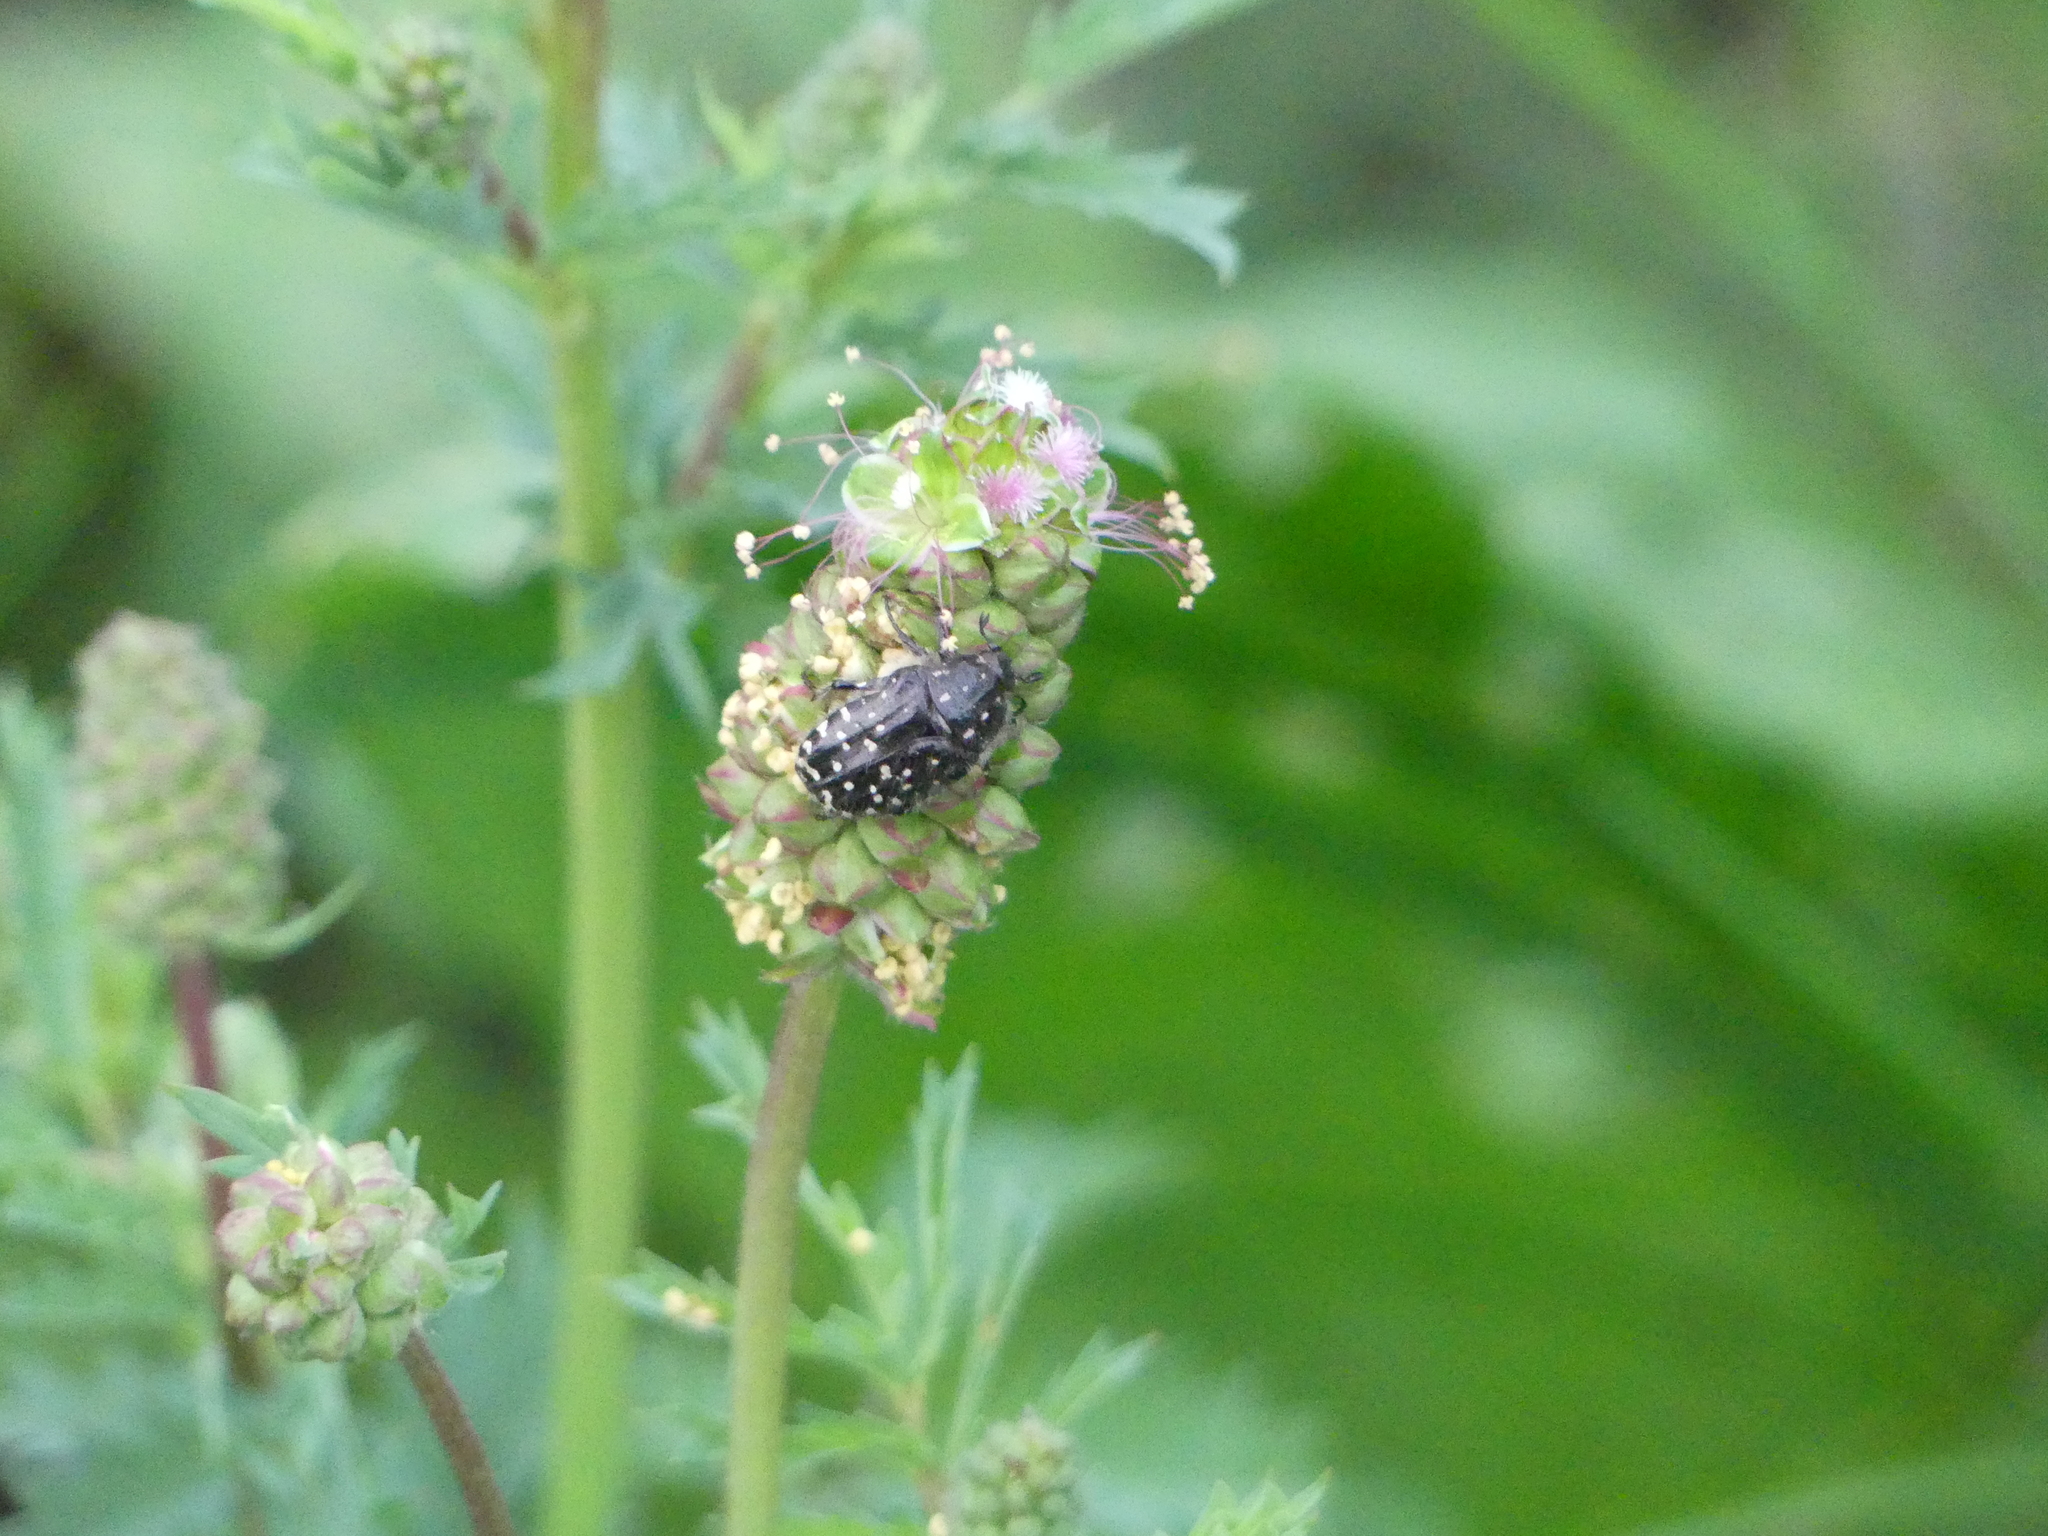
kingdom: Animalia
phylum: Arthropoda
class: Insecta
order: Coleoptera
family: Scarabaeidae
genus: Oxythyrea
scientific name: Oxythyrea funesta
